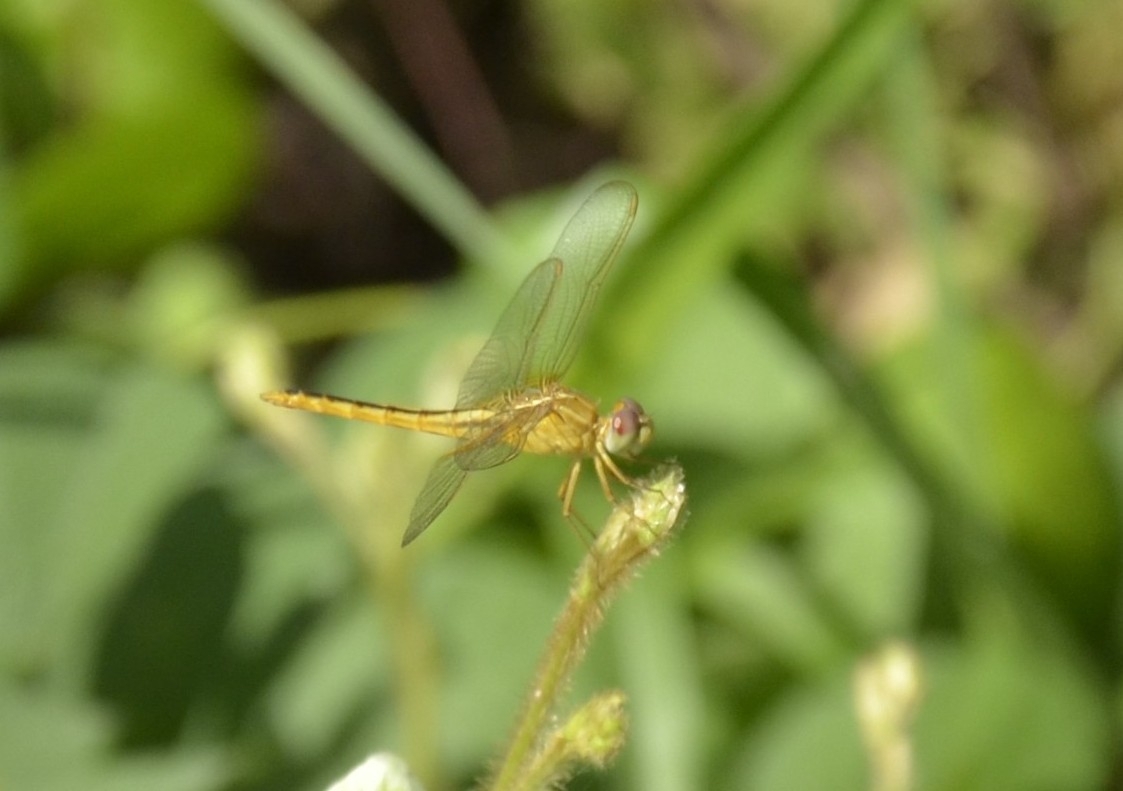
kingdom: Animalia
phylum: Arthropoda
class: Insecta
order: Odonata
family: Libellulidae
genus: Crocothemis
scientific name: Crocothemis servilia
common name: Scarlet skimmer
